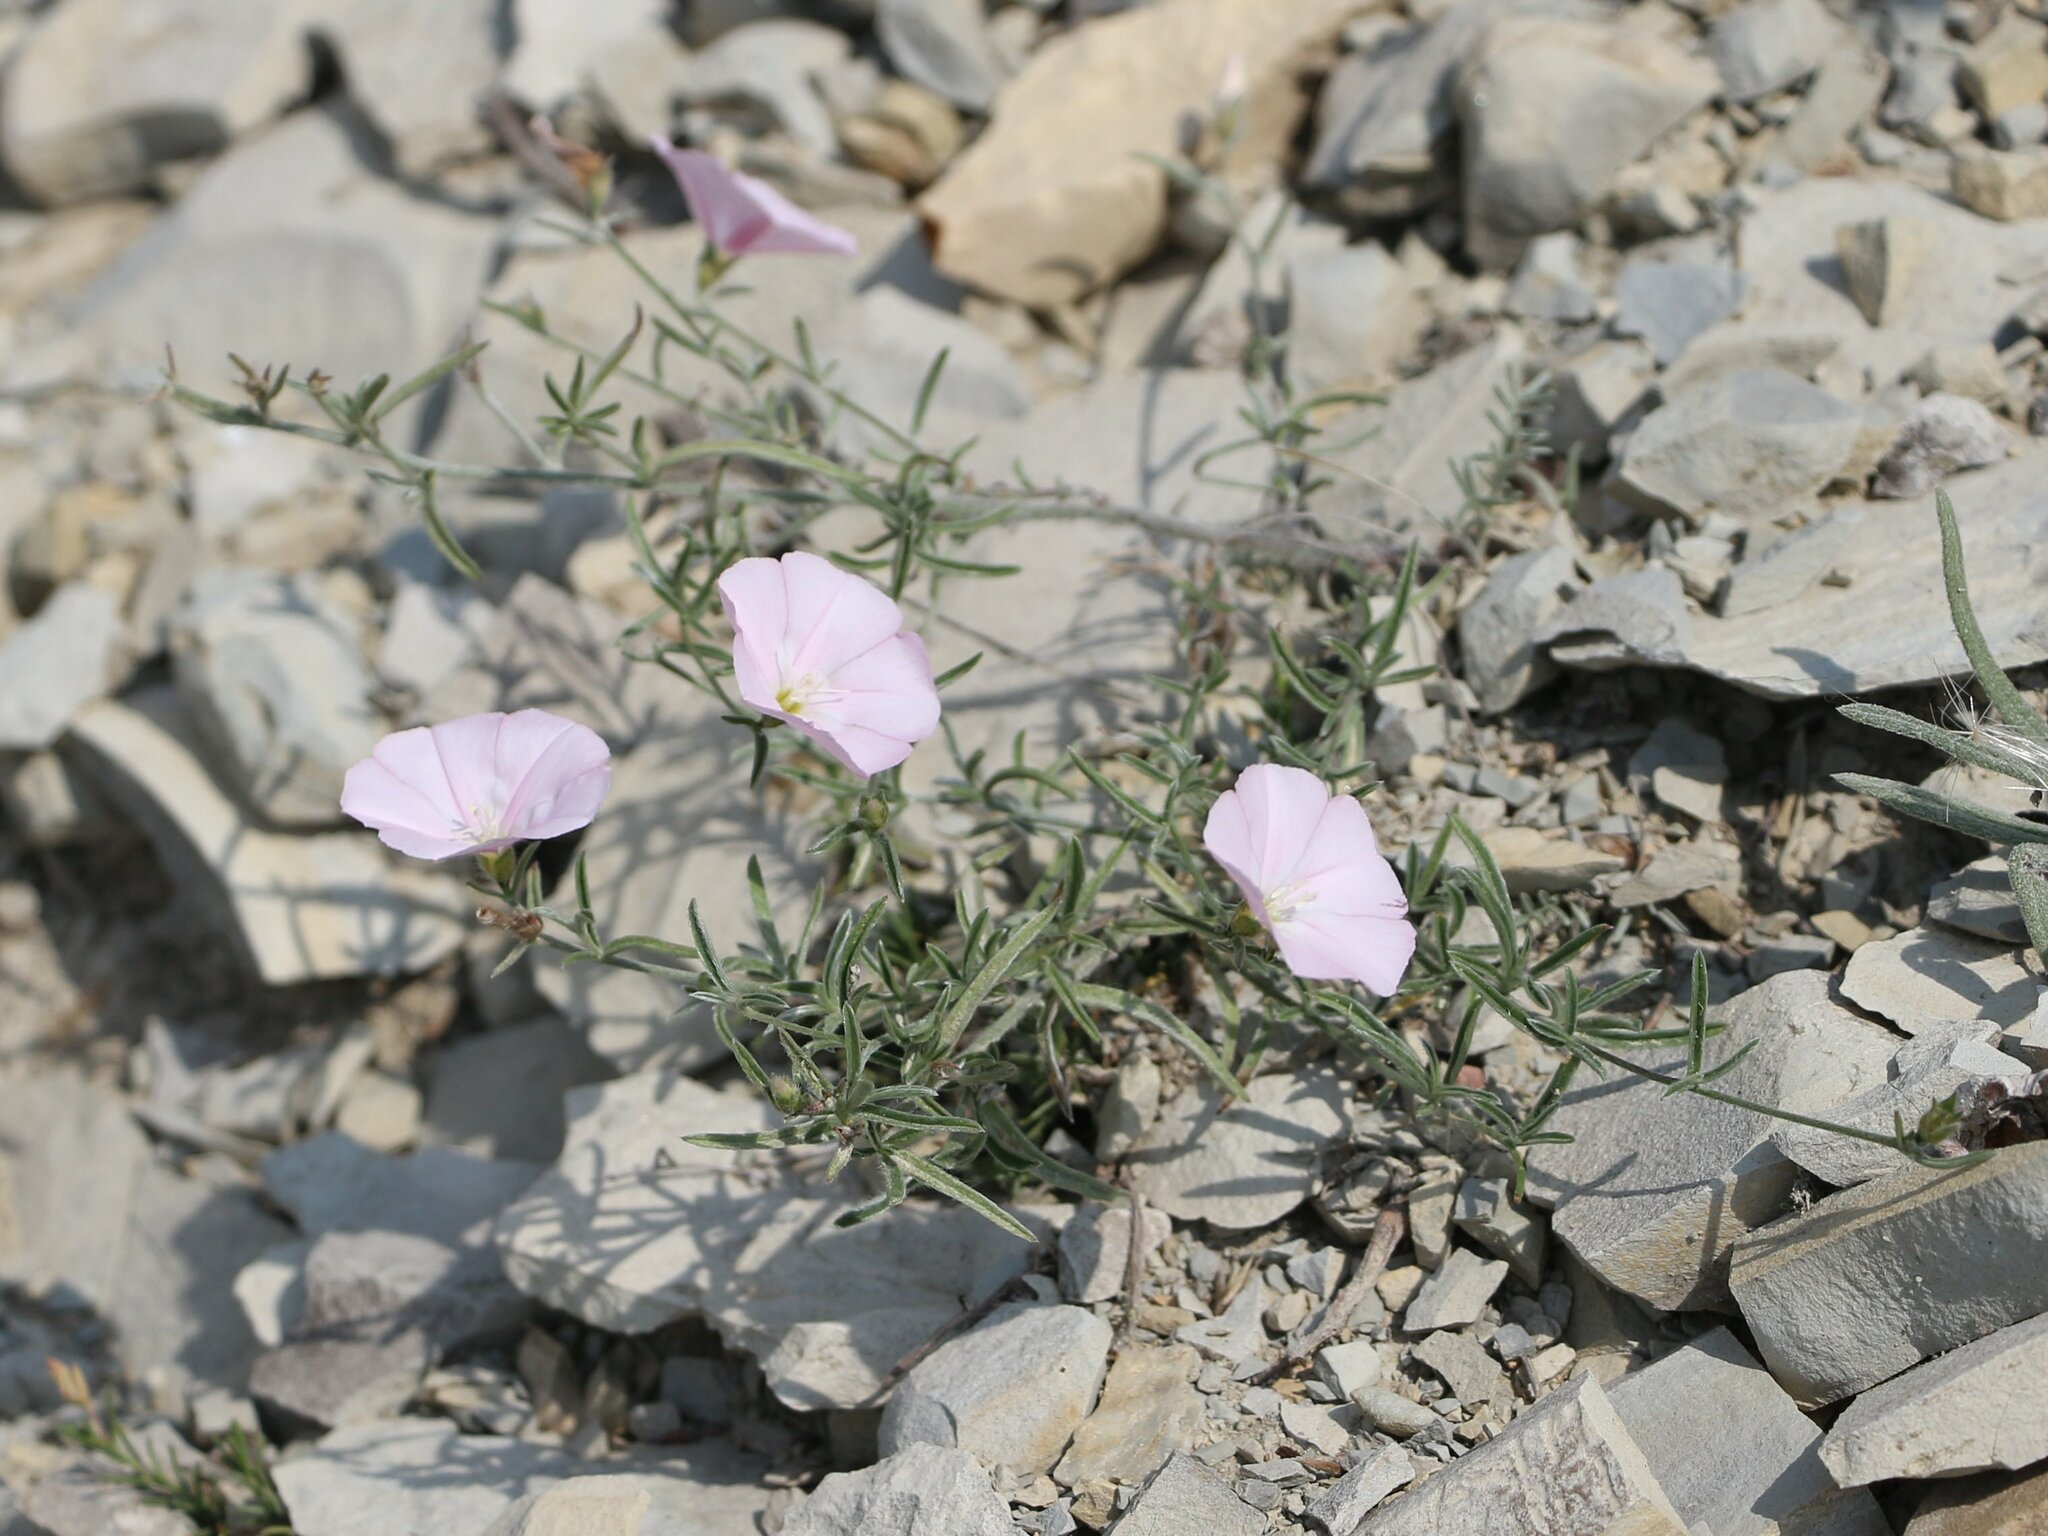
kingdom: Plantae
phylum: Tracheophyta
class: Magnoliopsida
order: Solanales
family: Convolvulaceae
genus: Convolvulus
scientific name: Convolvulus cantabrica
